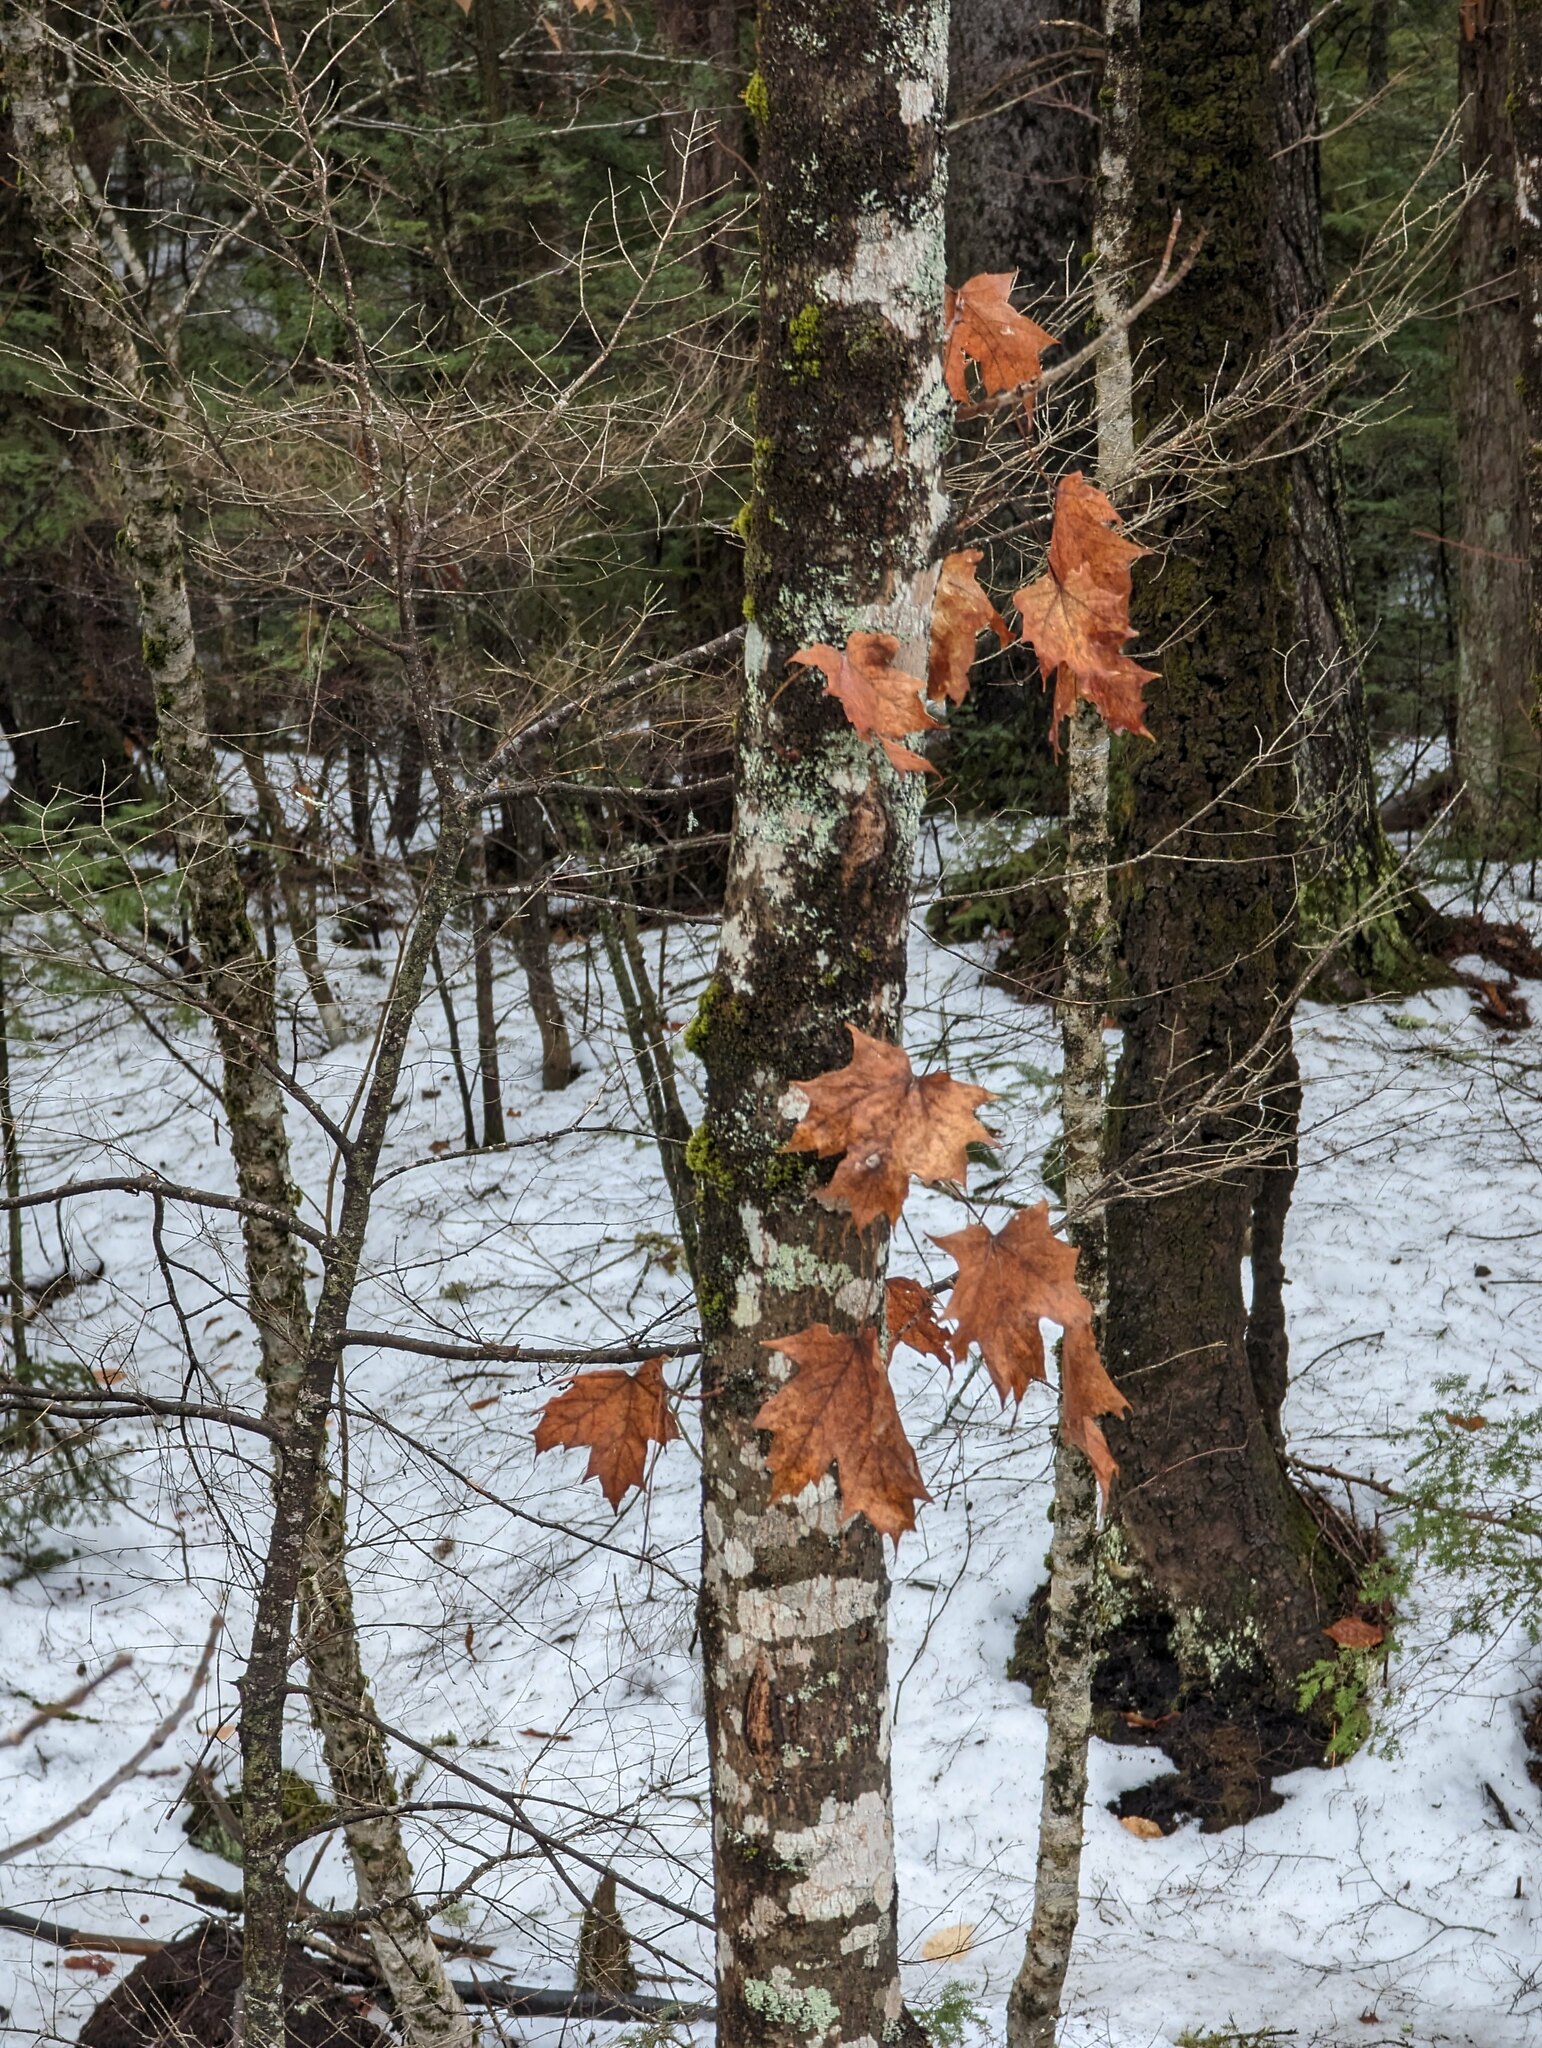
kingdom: Plantae
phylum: Tracheophyta
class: Magnoliopsida
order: Sapindales
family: Sapindaceae
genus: Acer
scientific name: Acer saccharum
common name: Sugar maple
